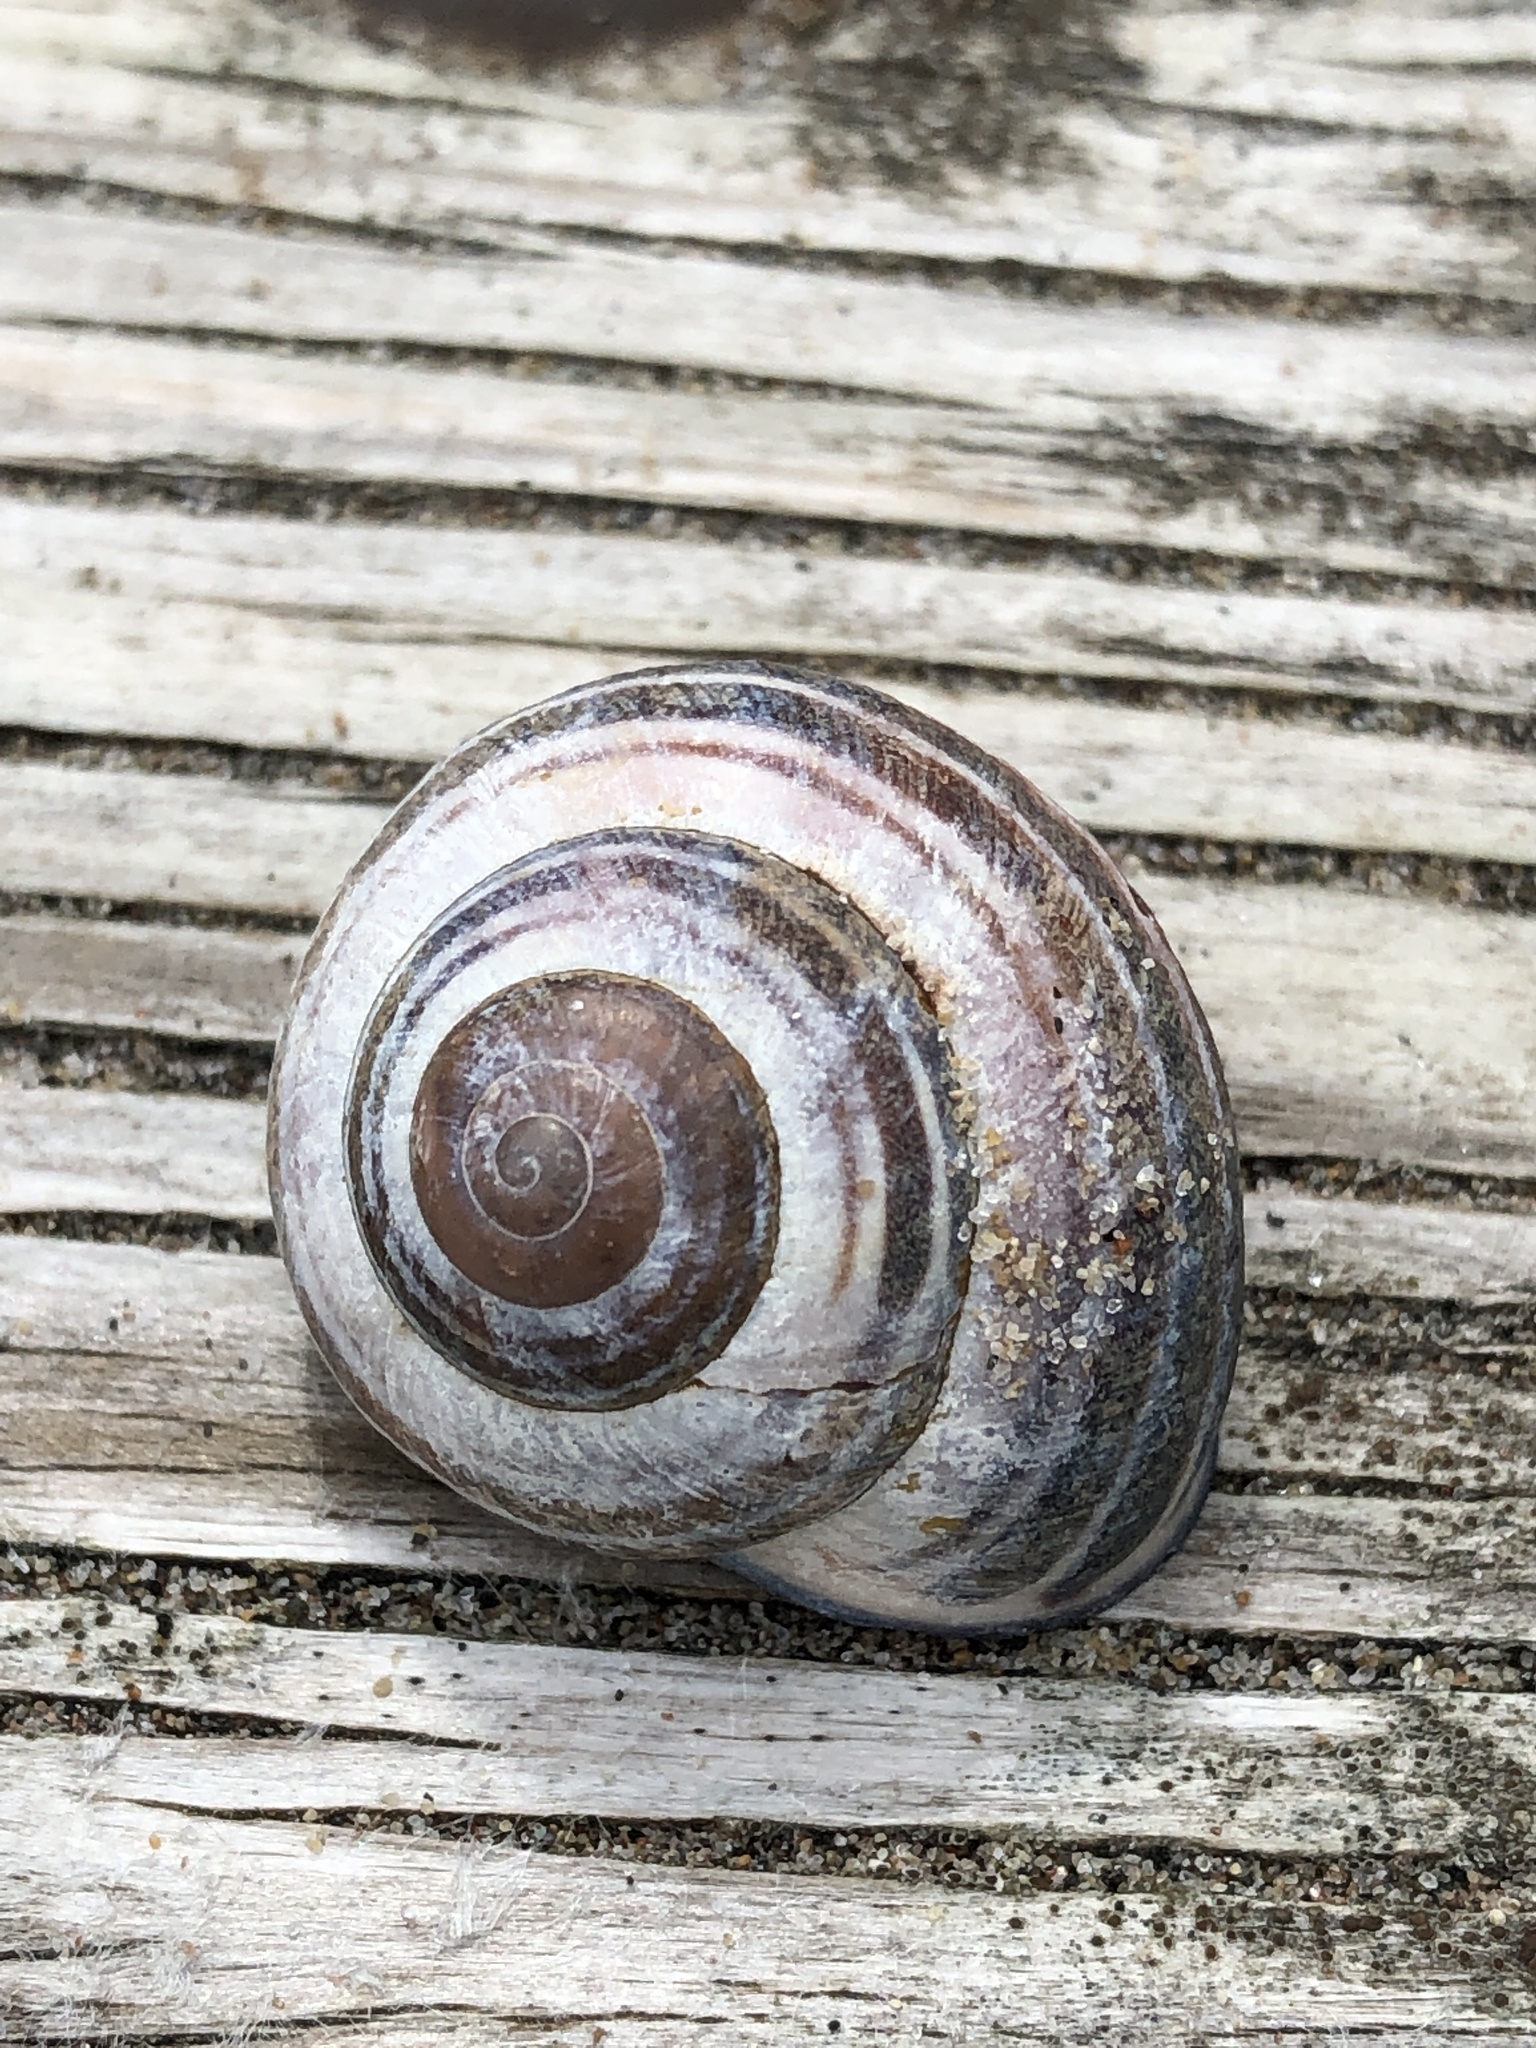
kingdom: Animalia
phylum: Mollusca
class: Gastropoda
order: Stylommatophora
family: Helicidae
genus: Cepaea
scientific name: Cepaea nemoralis
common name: Grovesnail
